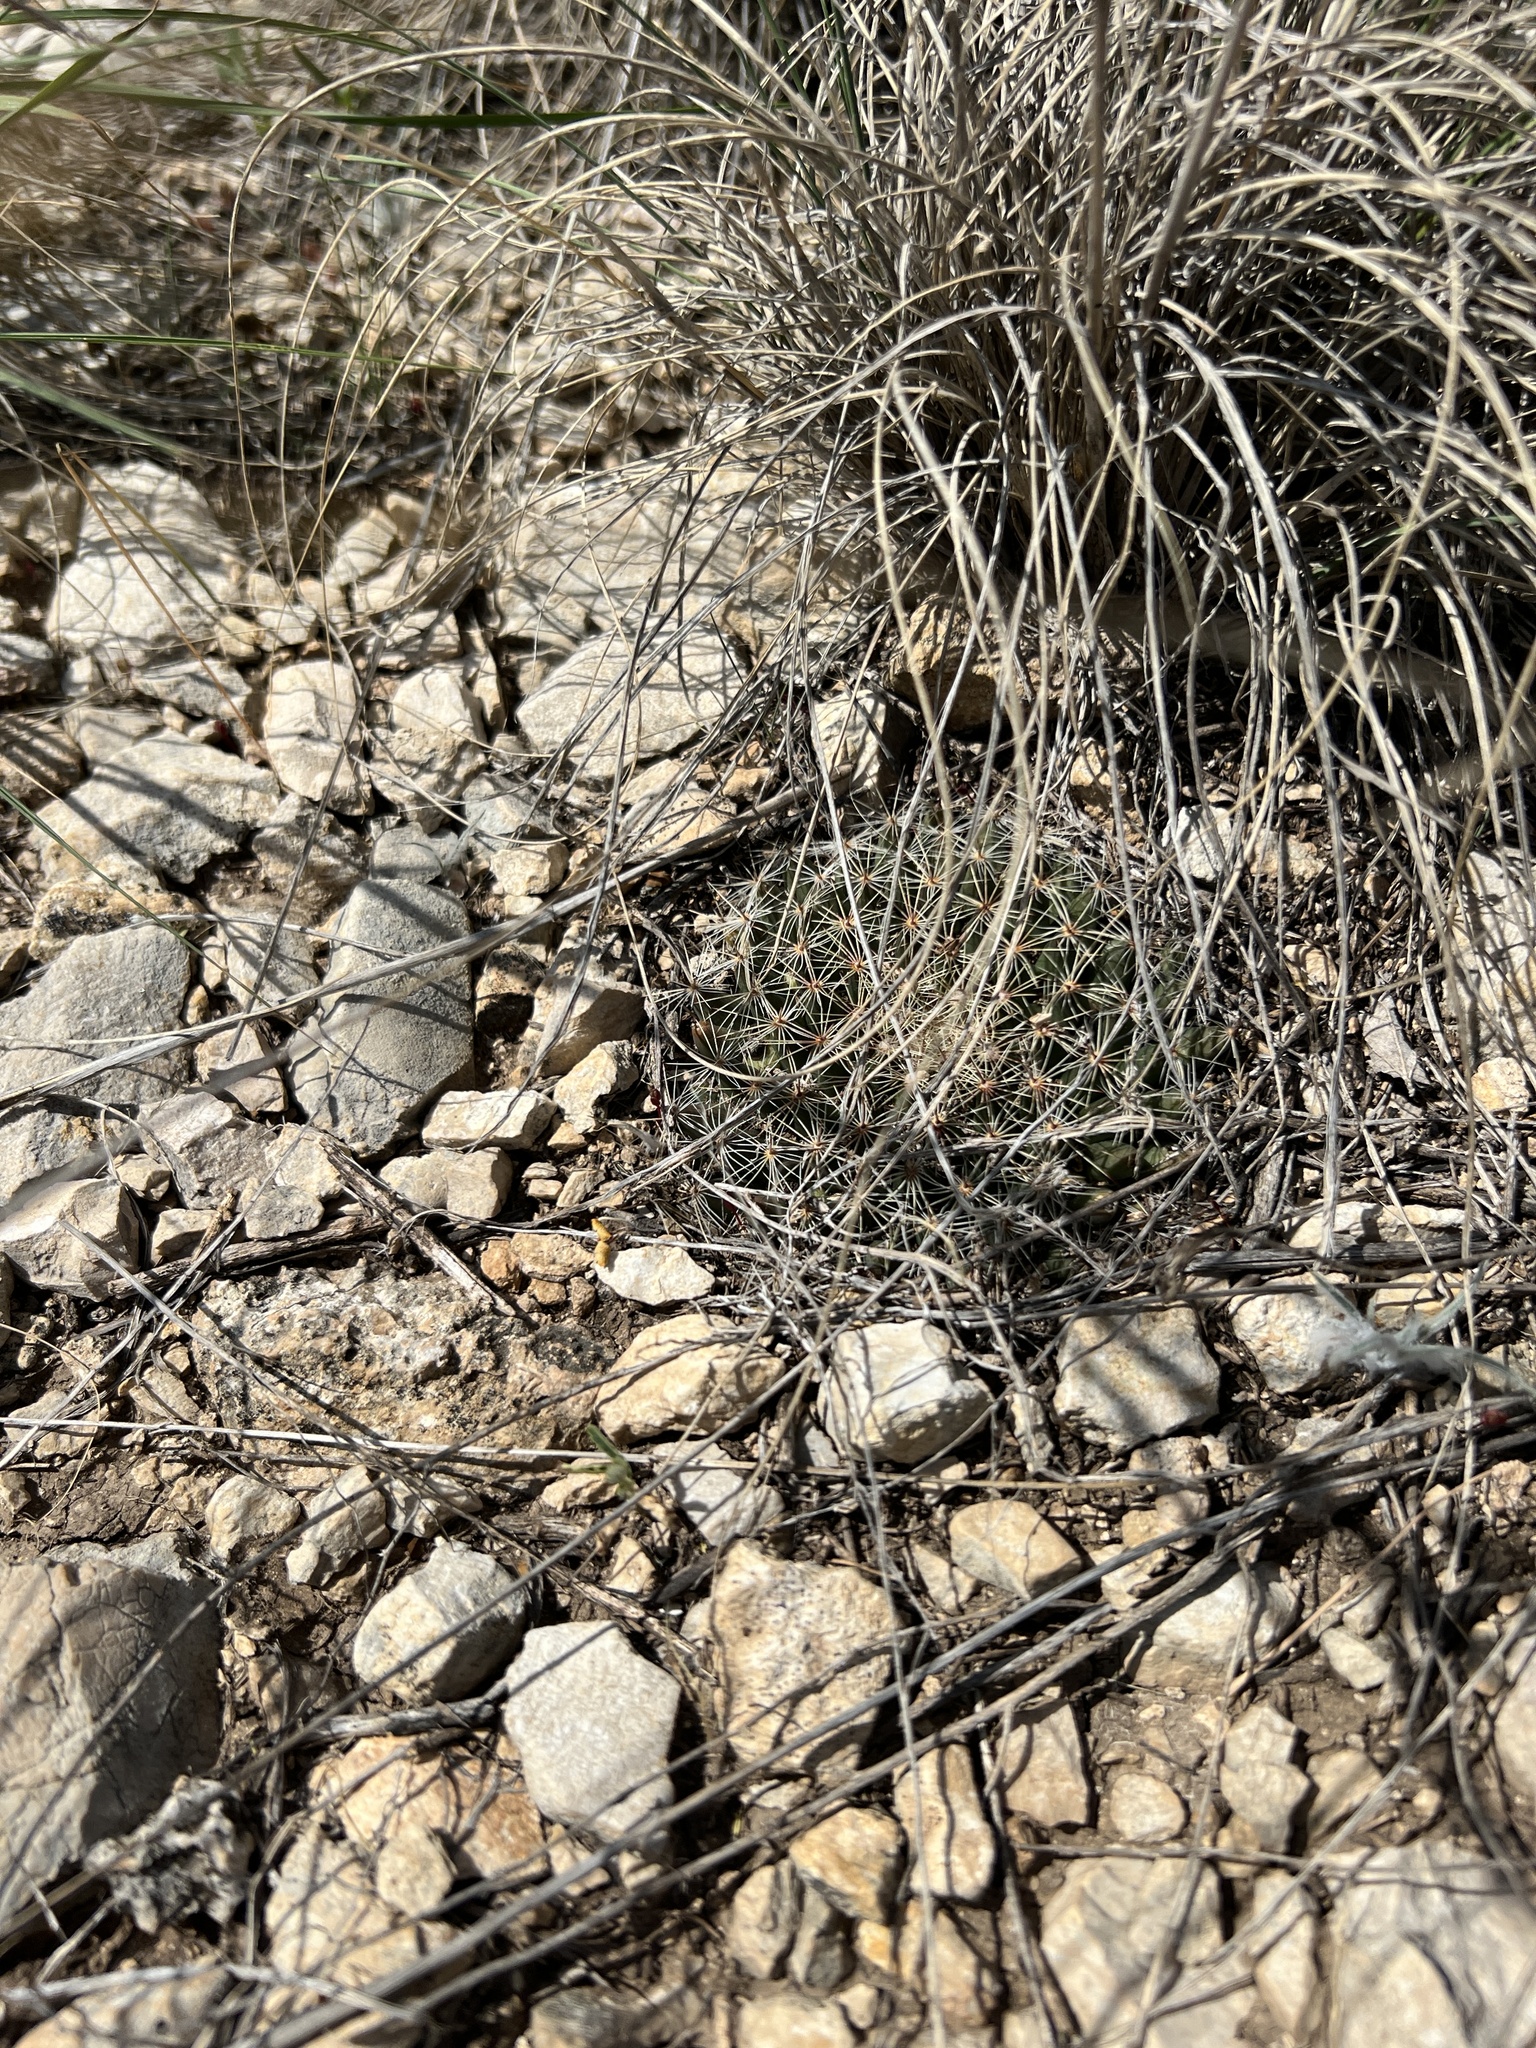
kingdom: Plantae
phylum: Tracheophyta
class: Magnoliopsida
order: Caryophyllales
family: Cactaceae
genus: Mammillaria
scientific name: Mammillaria heyderi
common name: Little nipple cactus
